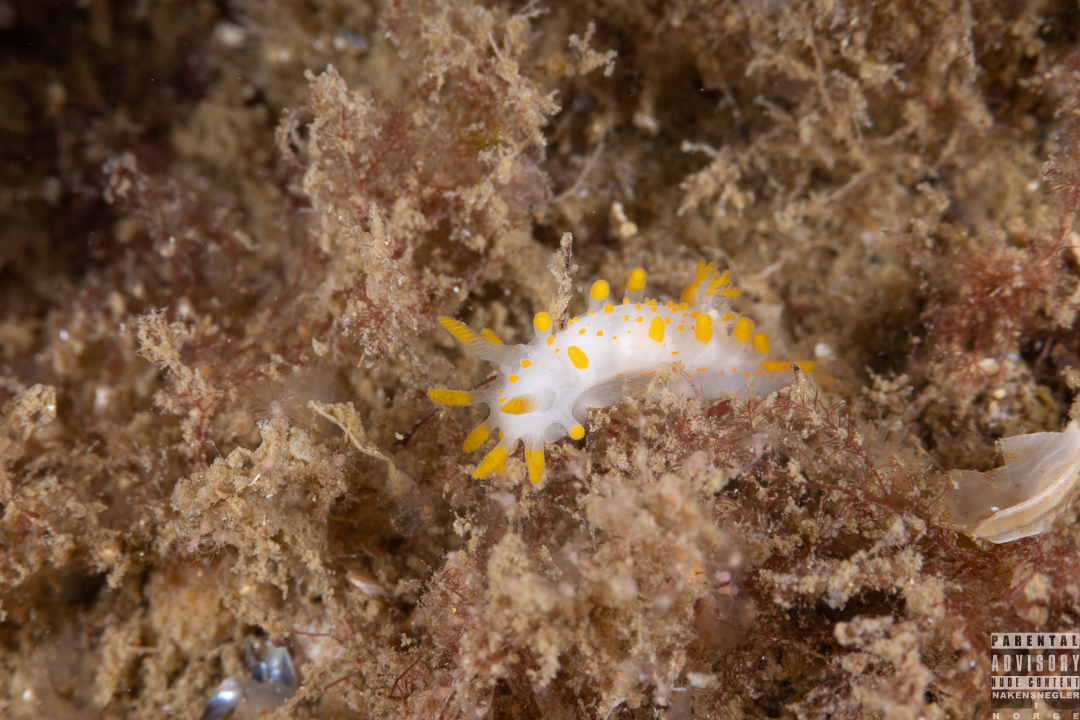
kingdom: Animalia
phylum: Mollusca
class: Gastropoda
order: Nudibranchia
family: Polyceridae
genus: Limacia
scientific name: Limacia clavigera
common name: Orange-clubbed sea slug
